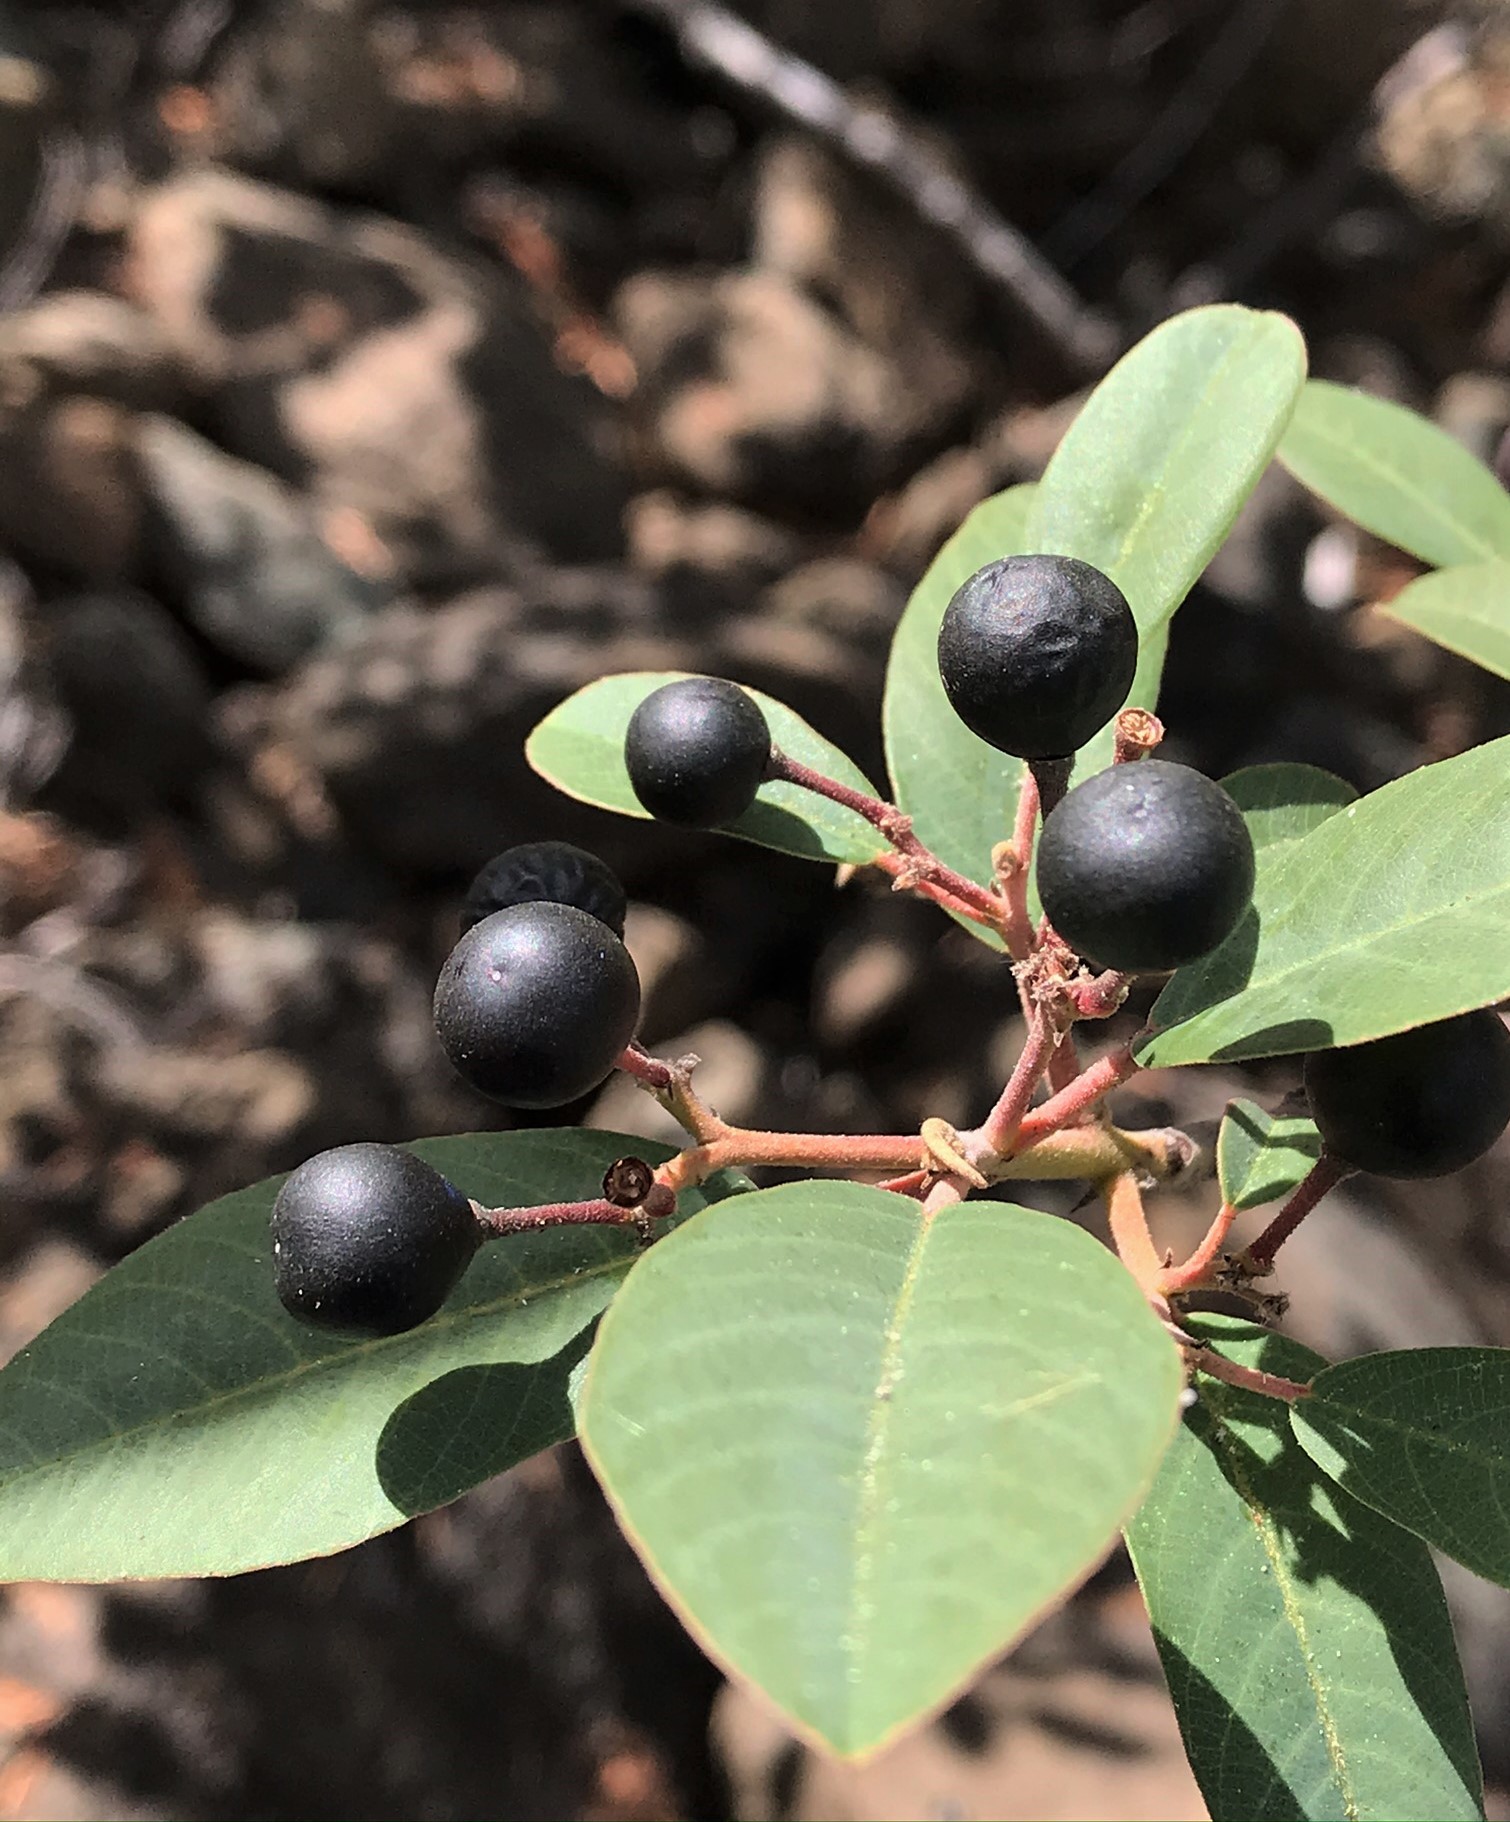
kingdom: Plantae
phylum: Tracheophyta
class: Magnoliopsida
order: Rosales
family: Rhamnaceae
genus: Frangula
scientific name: Frangula californica
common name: California buckthorn
